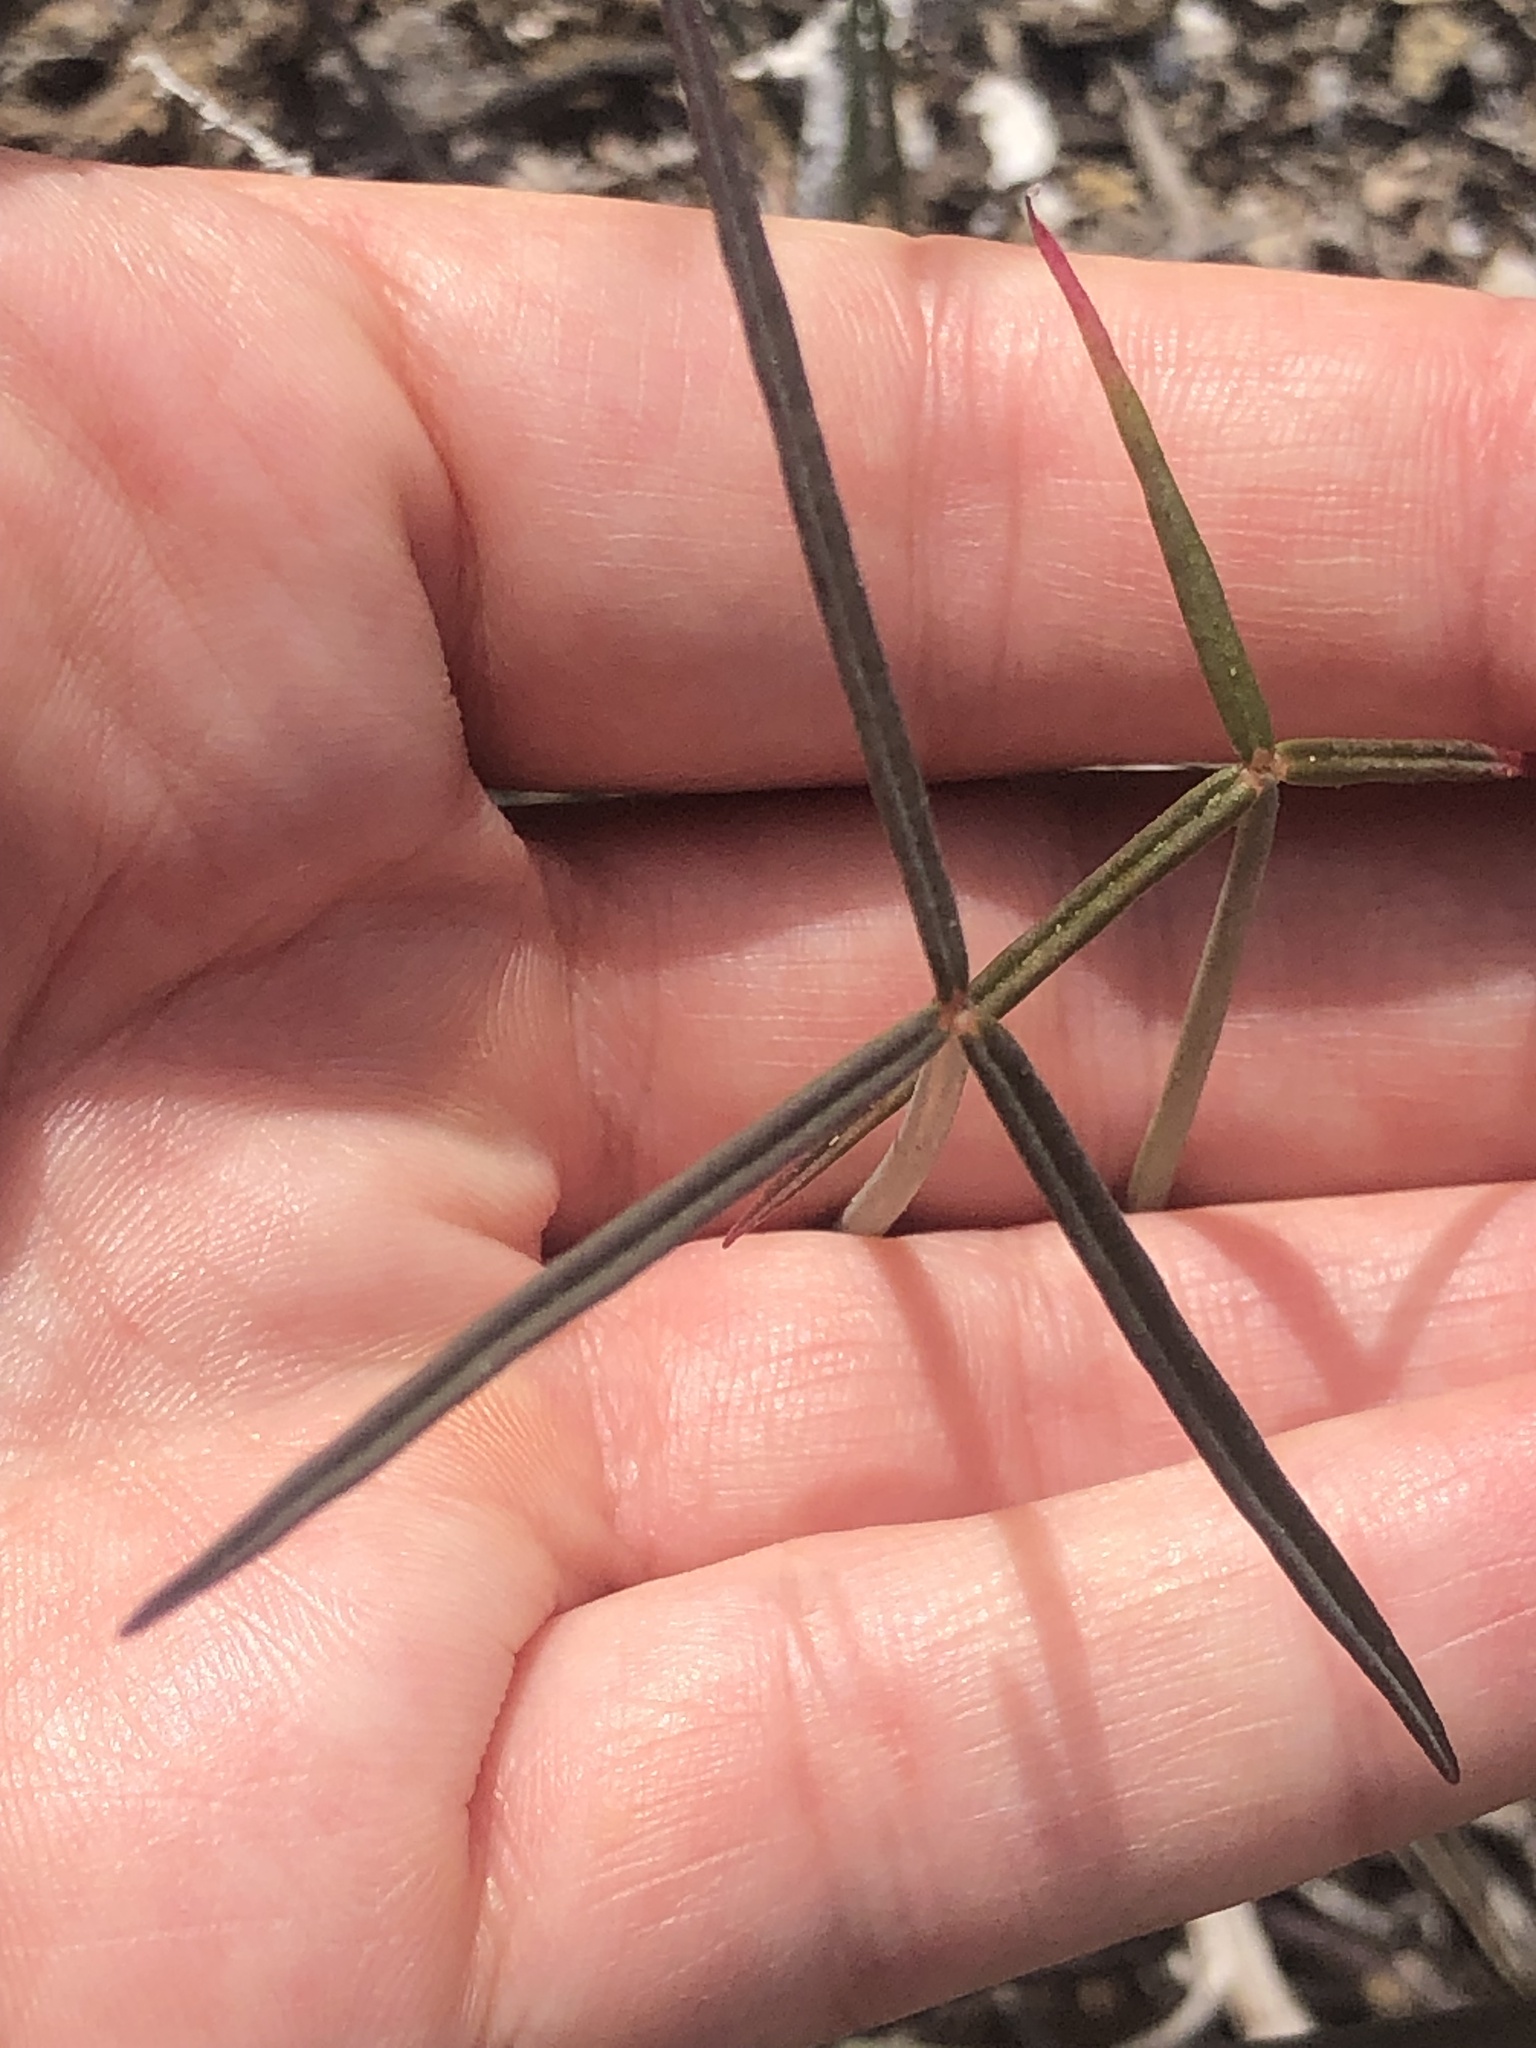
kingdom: Plantae
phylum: Tracheophyta
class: Magnoliopsida
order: Oxalidales
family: Oxalidaceae
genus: Oxalis
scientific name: Oxalis tortuosa
